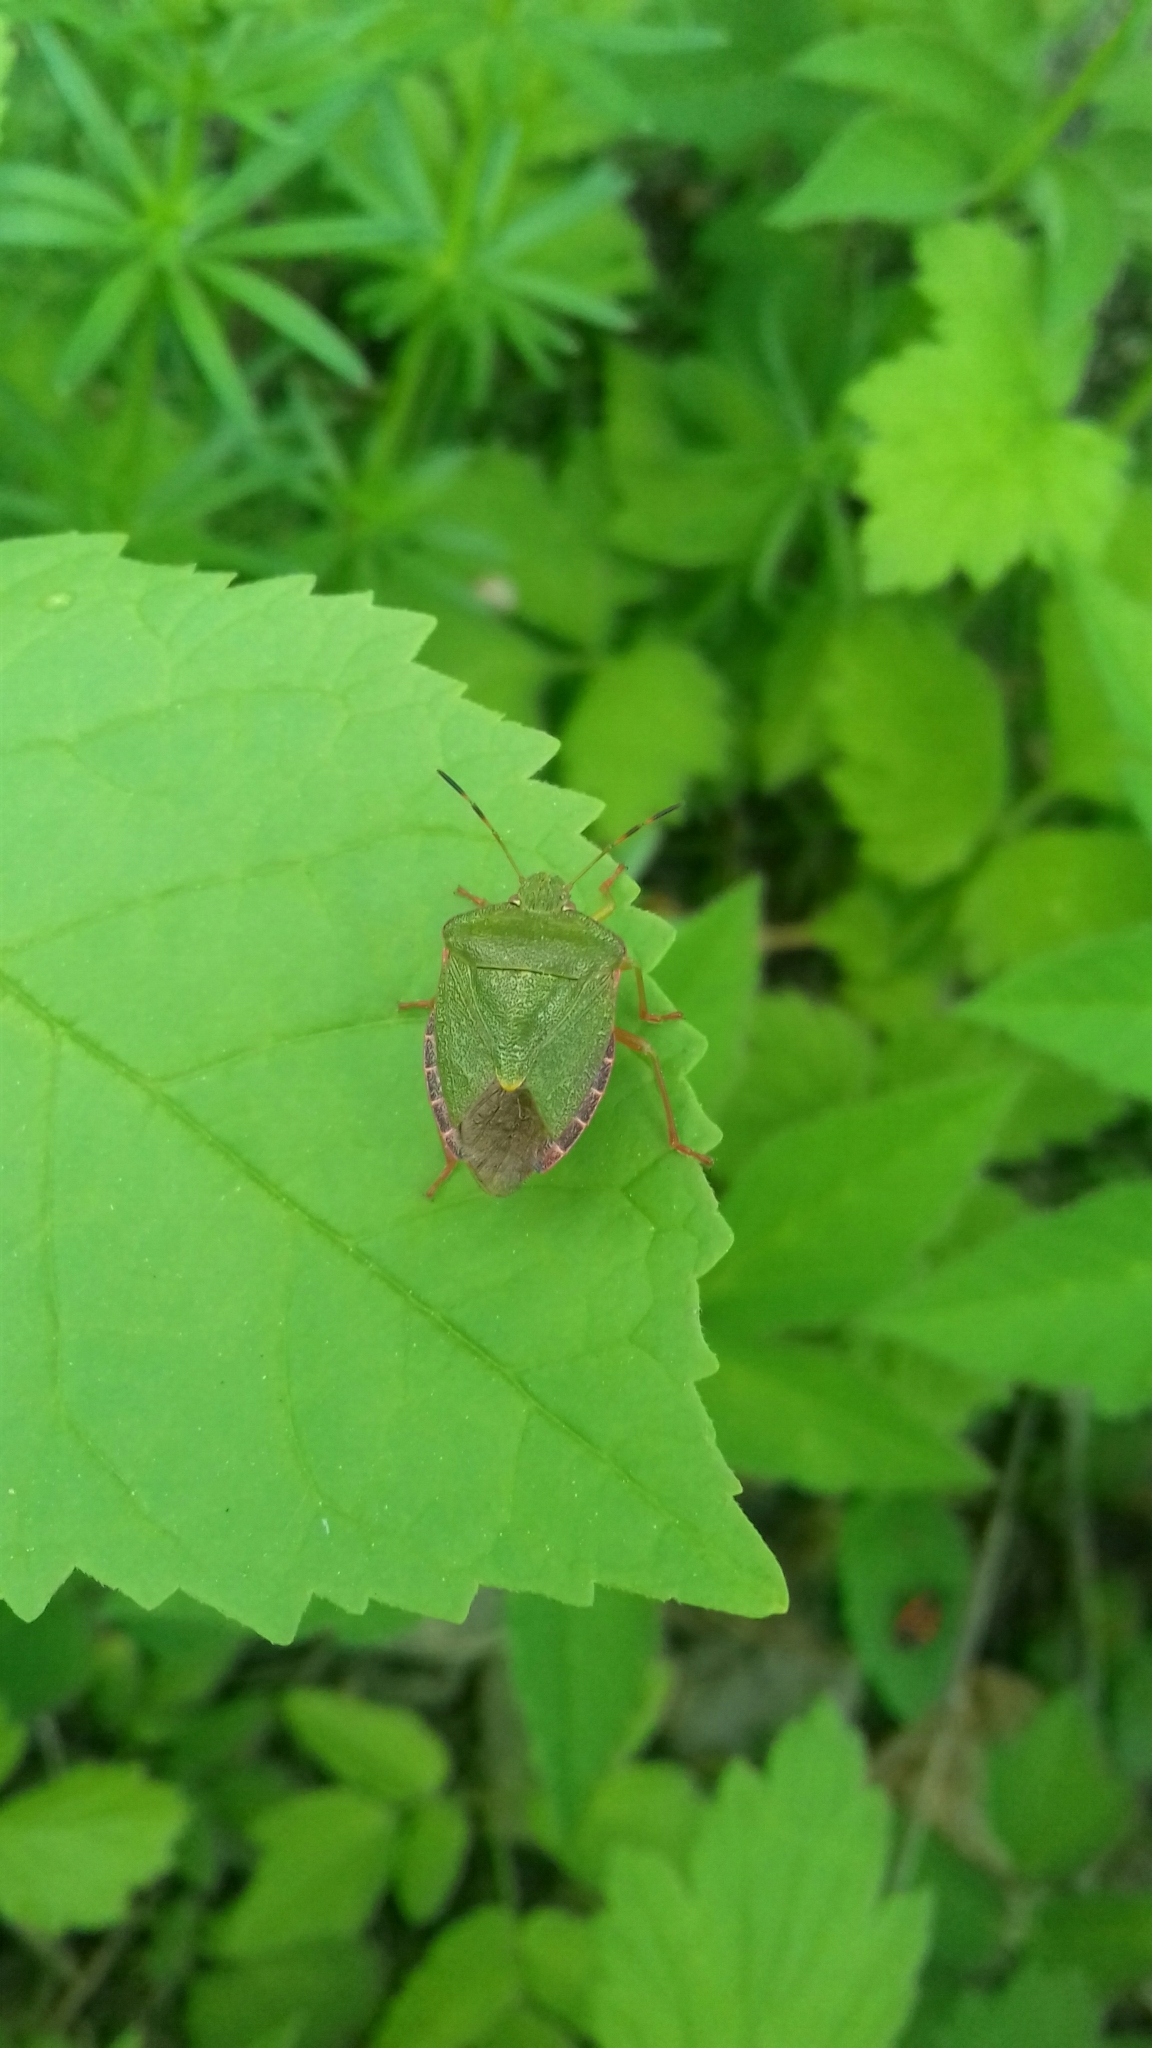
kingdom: Animalia
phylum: Arthropoda
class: Insecta
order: Hemiptera
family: Pentatomidae
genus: Palomena
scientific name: Palomena prasina
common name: Green shieldbug
